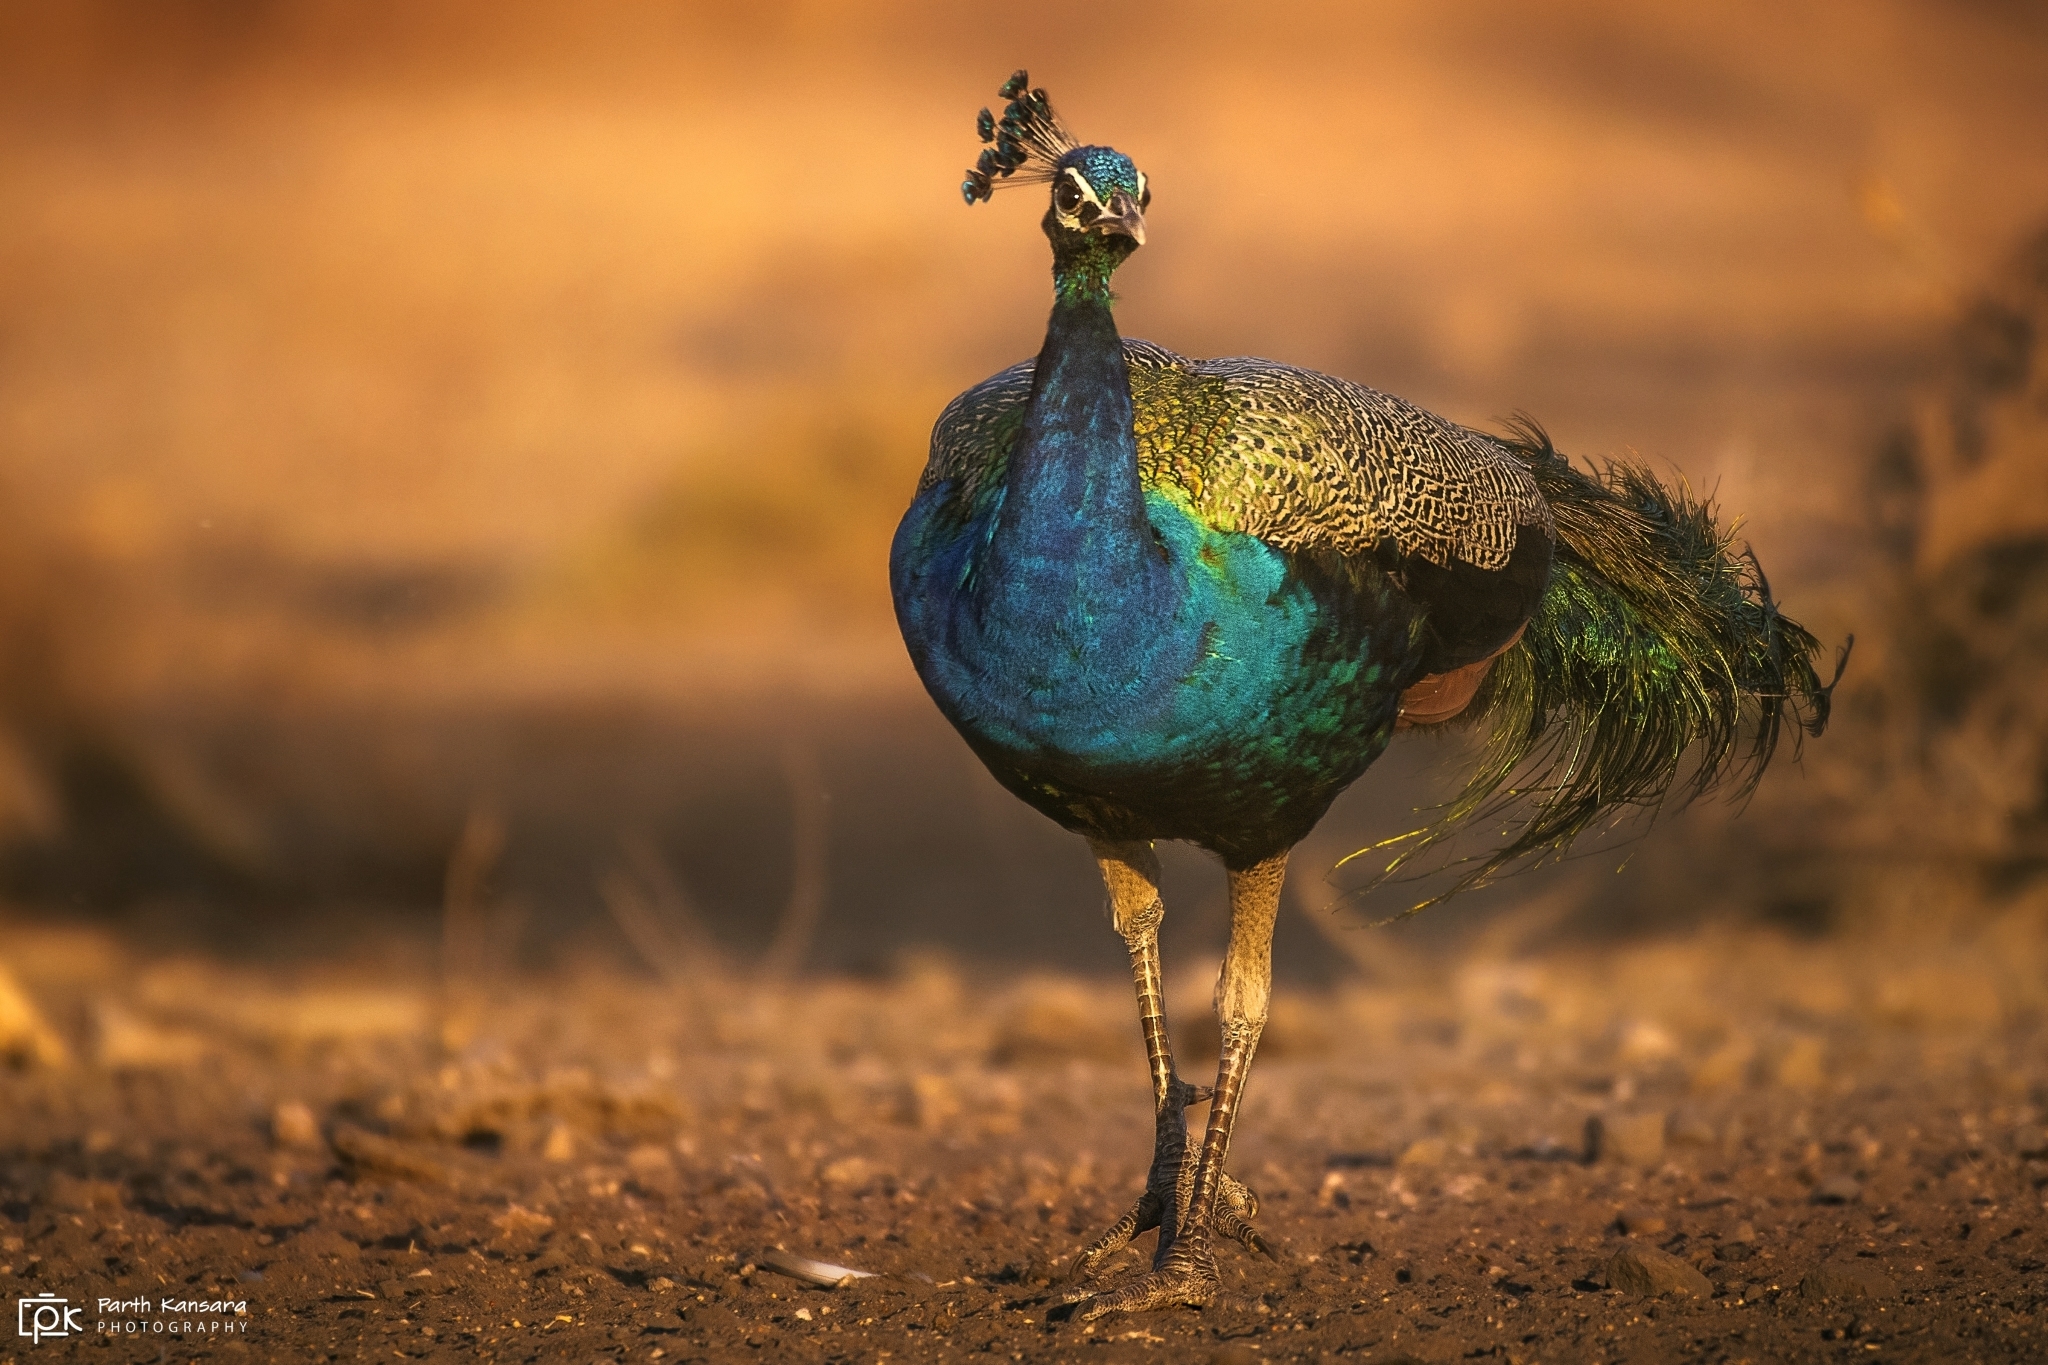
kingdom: Animalia
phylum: Chordata
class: Aves
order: Galliformes
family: Phasianidae
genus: Pavo
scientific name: Pavo cristatus
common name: Indian peafowl
